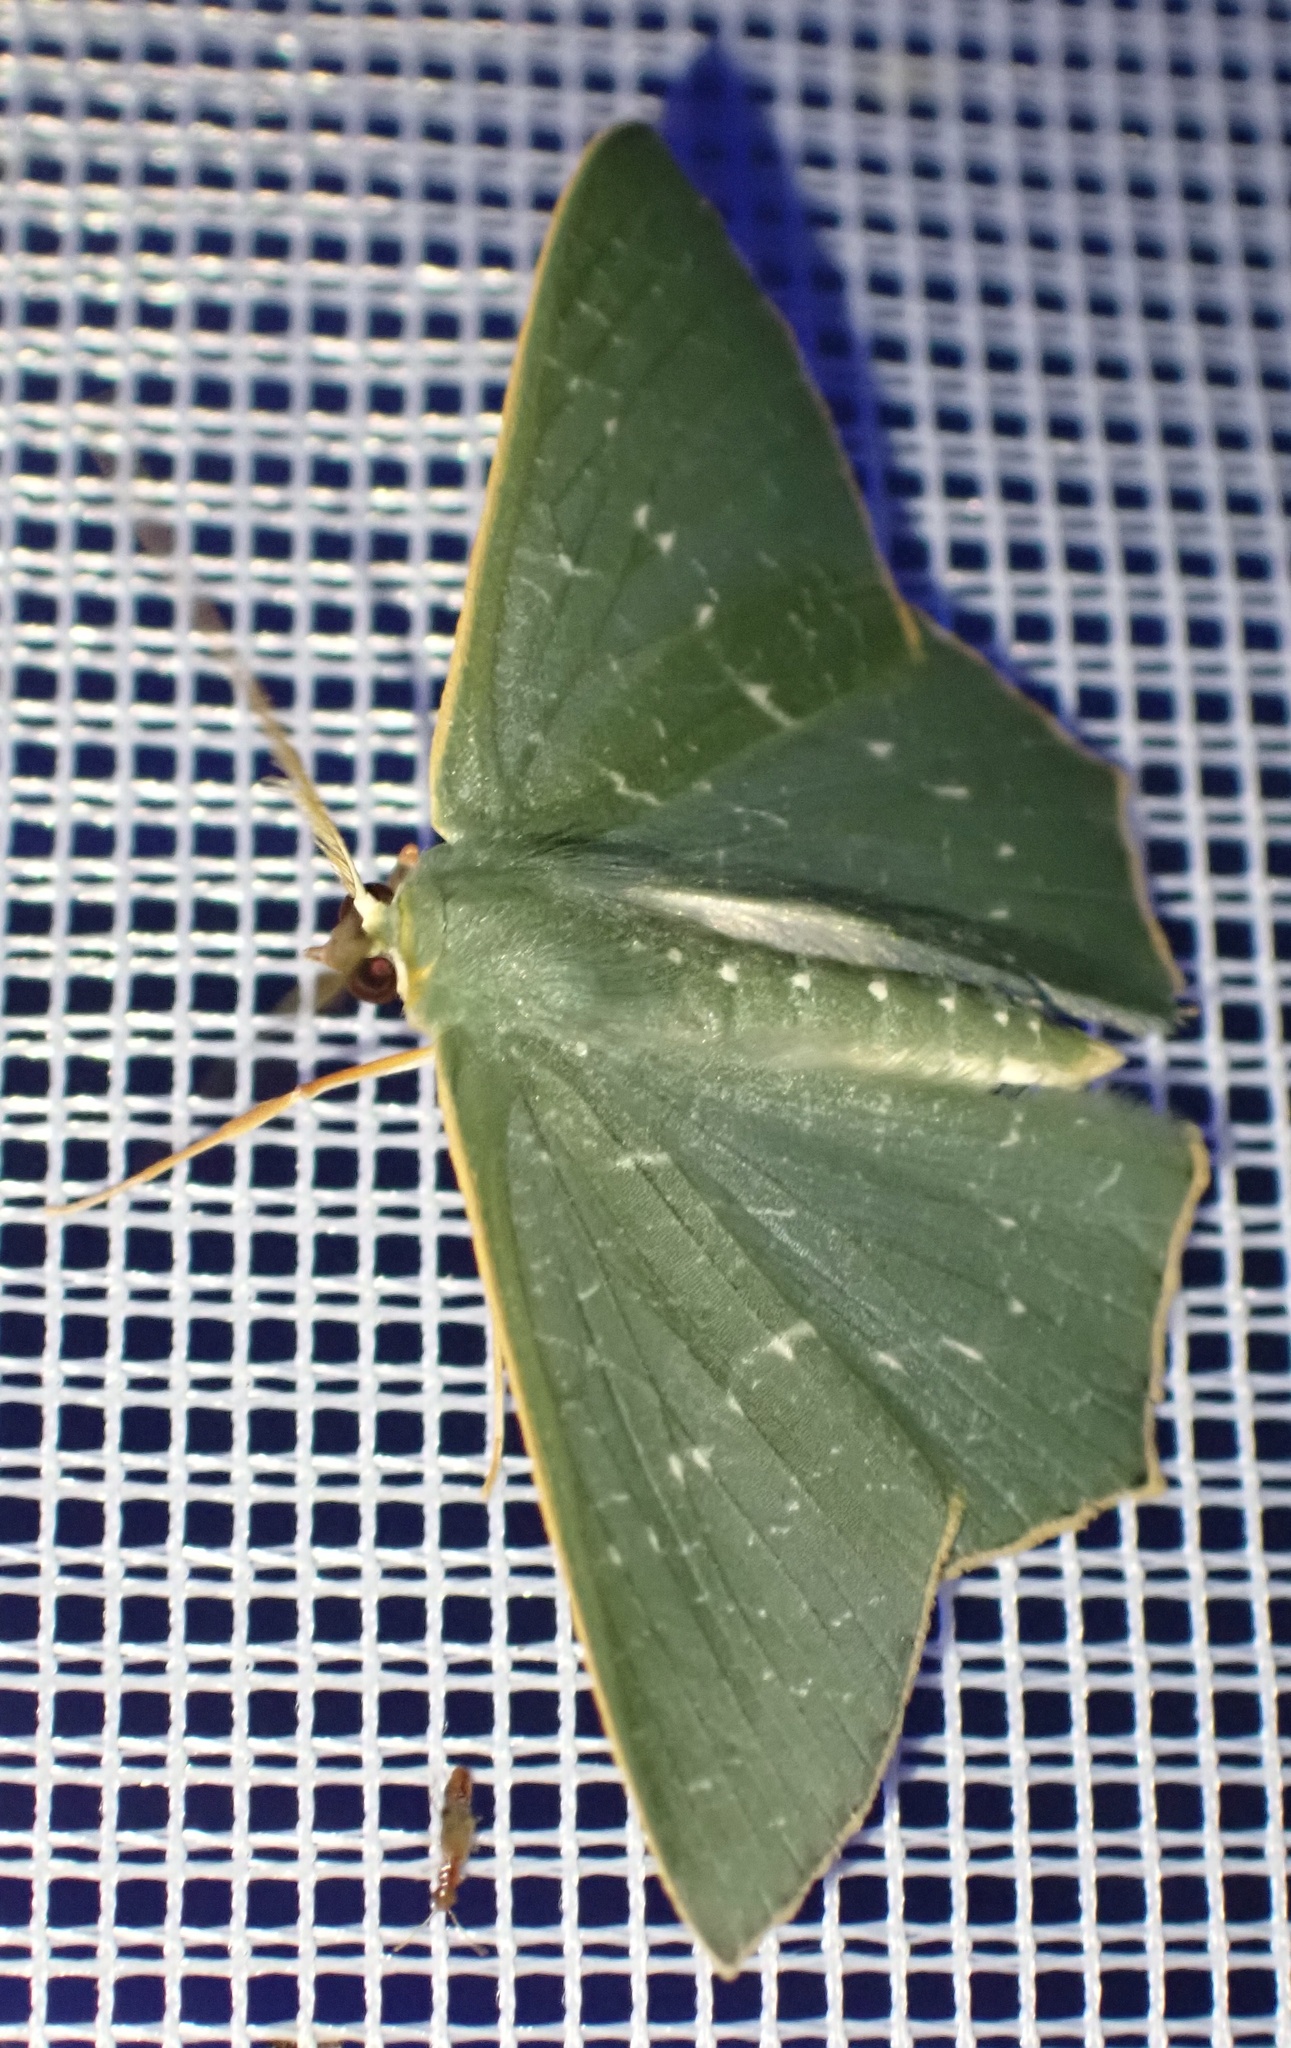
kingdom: Animalia
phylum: Arthropoda
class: Insecta
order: Lepidoptera
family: Geometridae
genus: Thalassodes
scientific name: Thalassodes dorsipunctata
